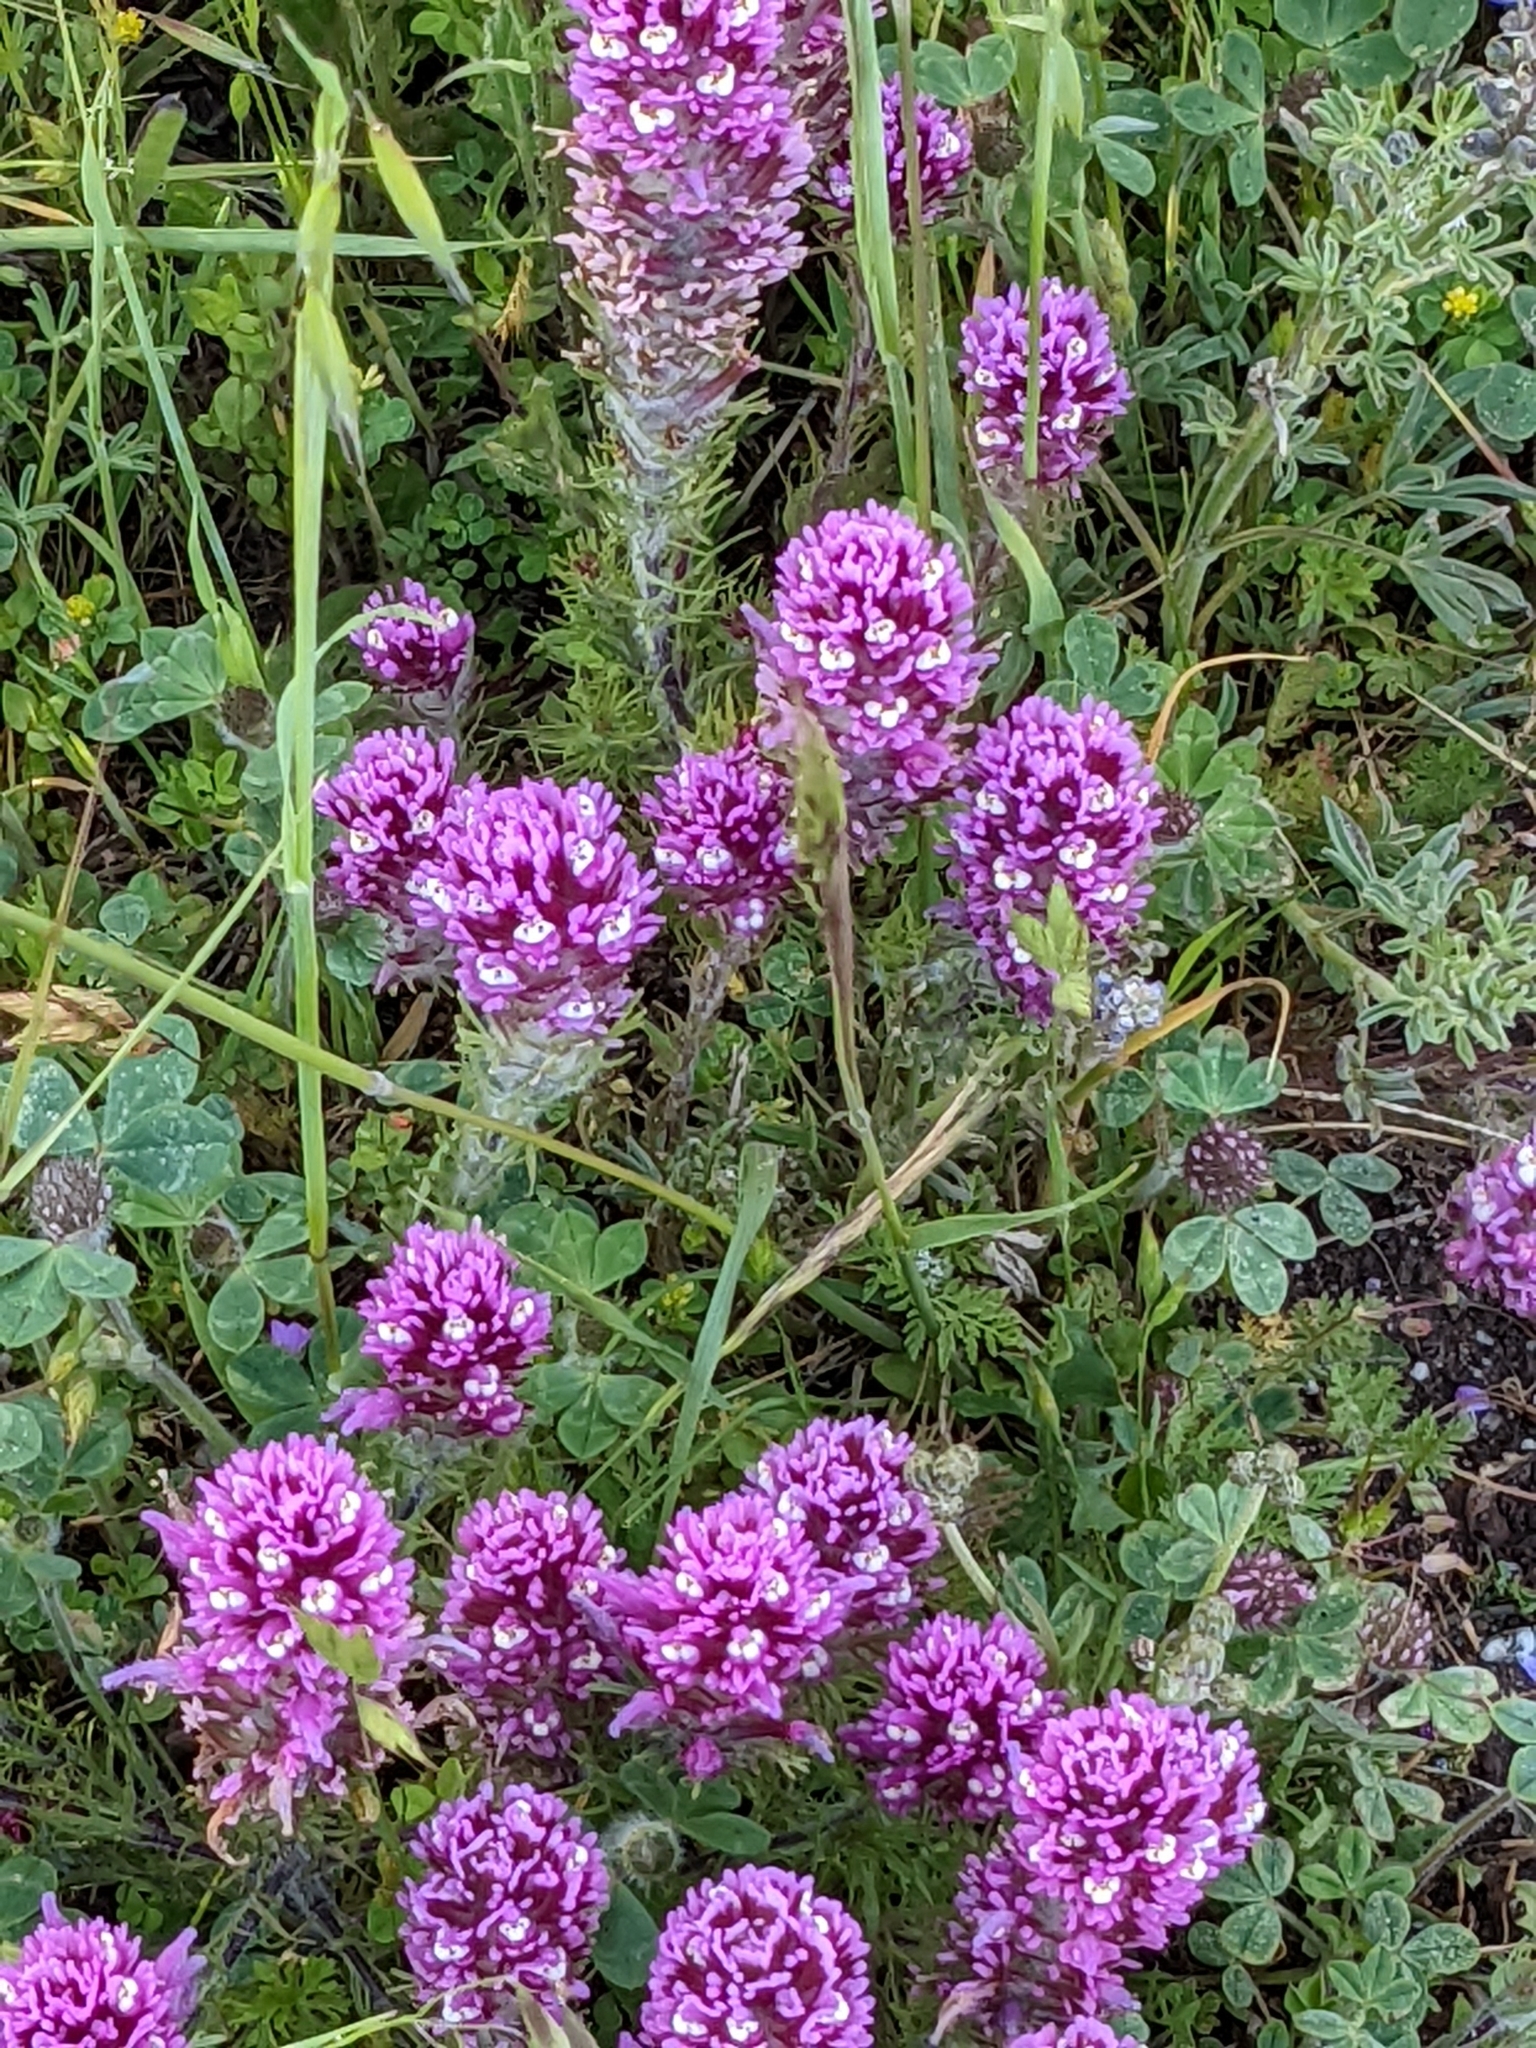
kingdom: Plantae
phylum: Tracheophyta
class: Magnoliopsida
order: Lamiales
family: Orobanchaceae
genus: Castilleja
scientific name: Castilleja exserta
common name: Purple owl-clover
